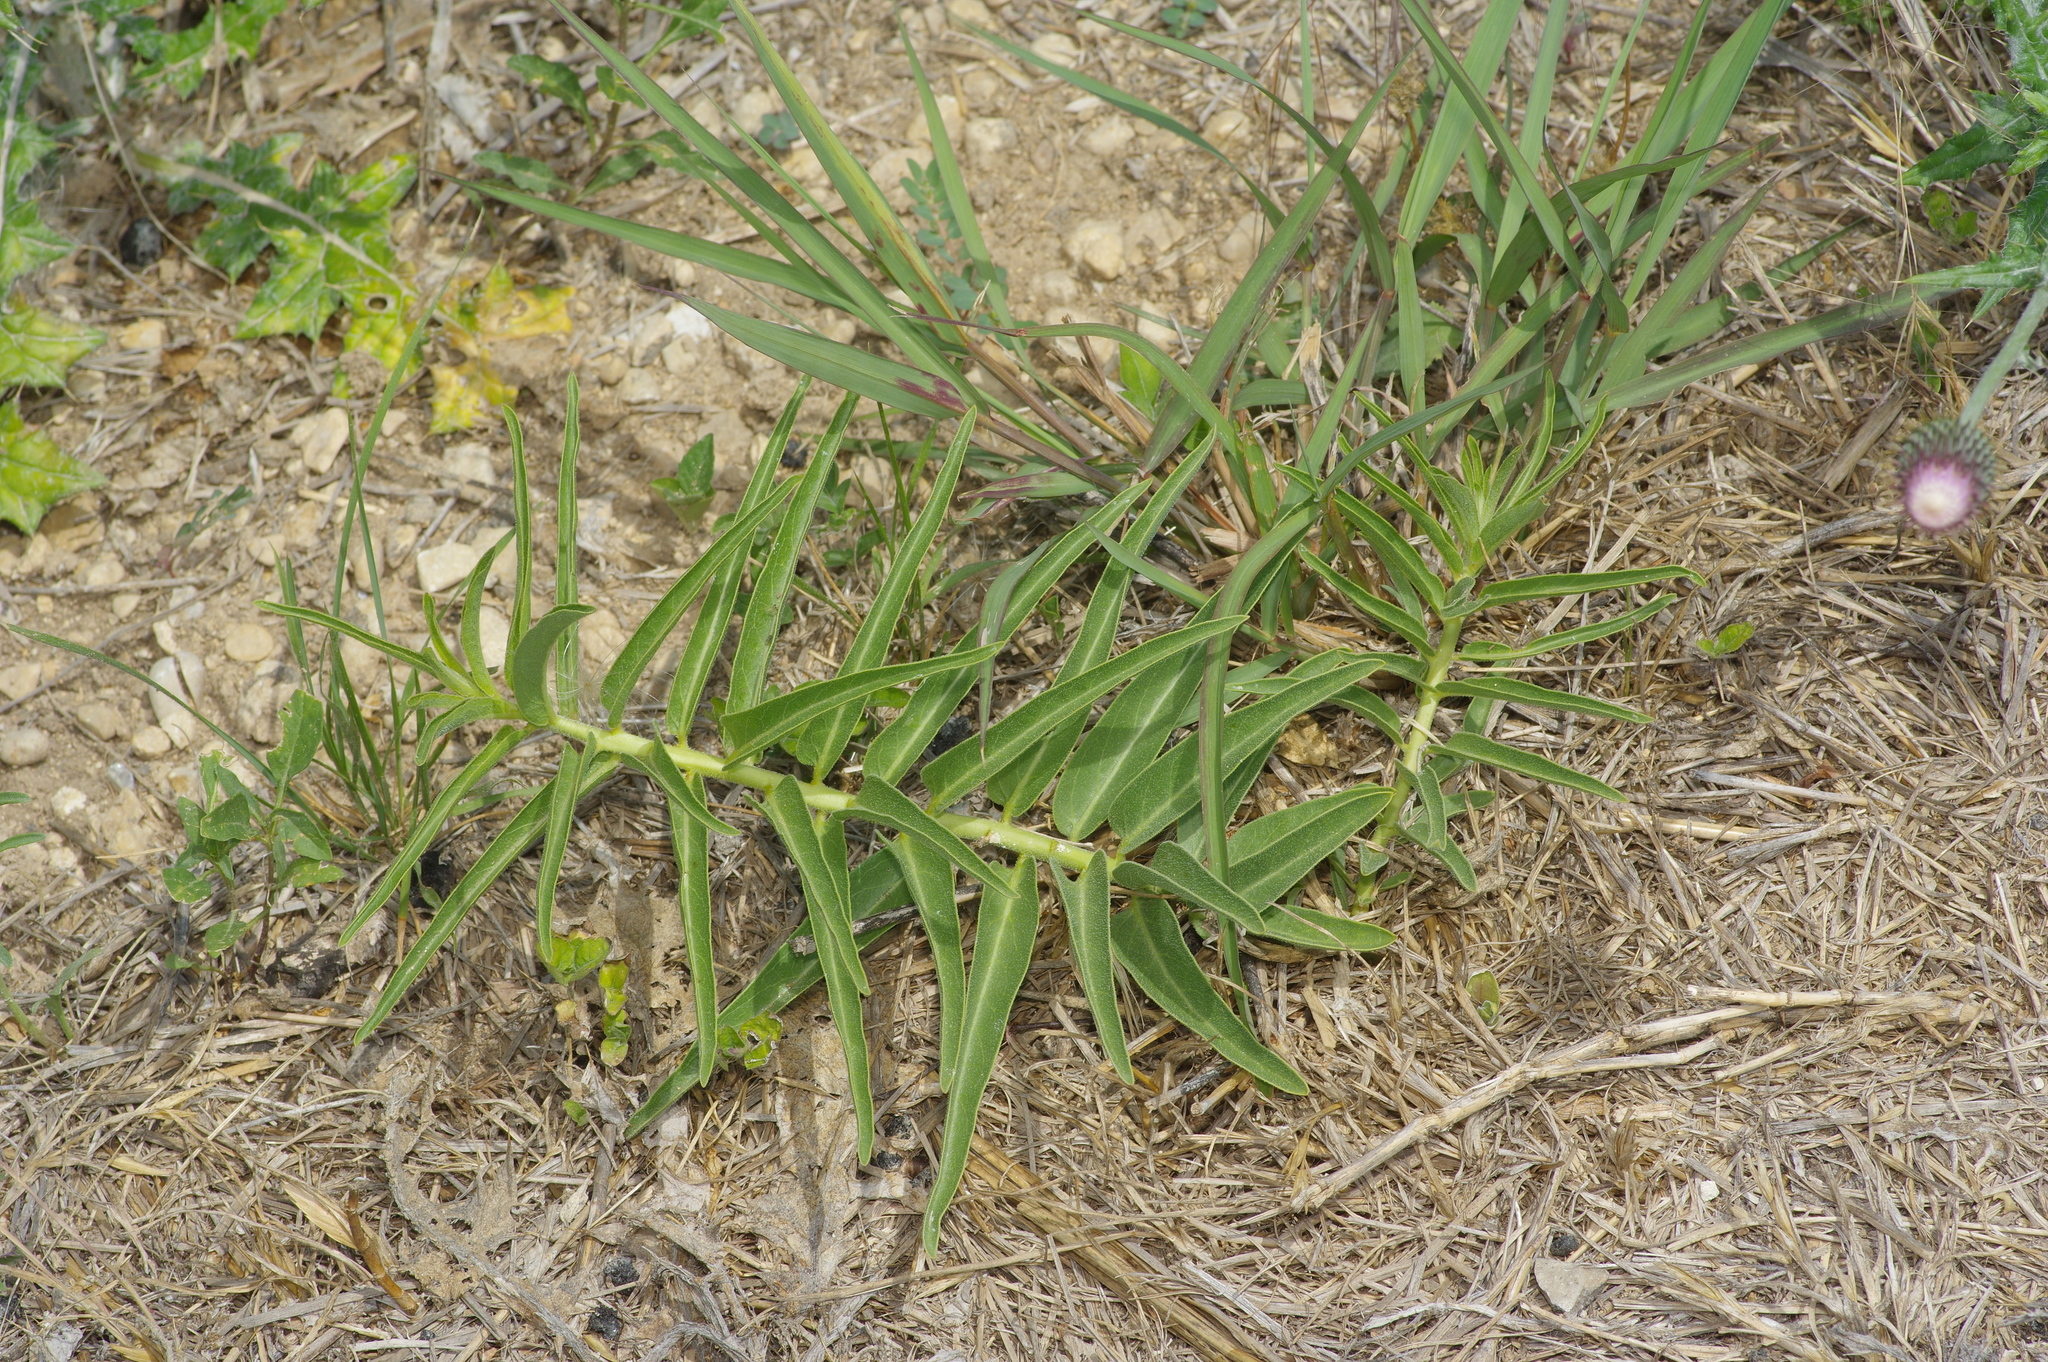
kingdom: Plantae
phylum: Tracheophyta
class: Magnoliopsida
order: Gentianales
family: Apocynaceae
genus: Asclepias
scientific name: Asclepias asperula
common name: Antelope horns
